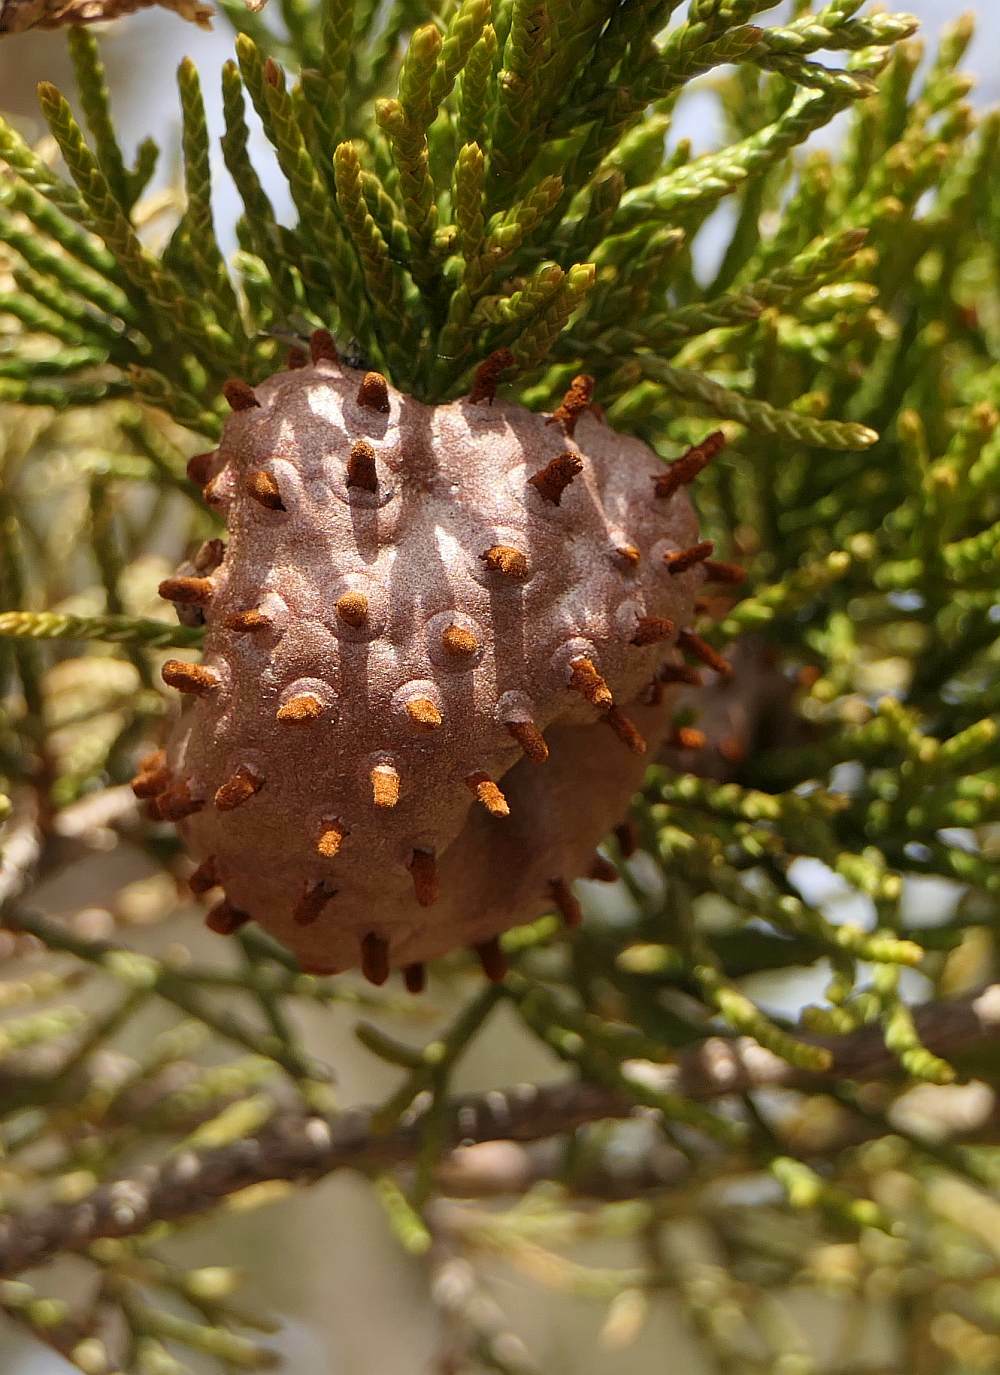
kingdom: Fungi
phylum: Basidiomycota
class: Pucciniomycetes
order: Pucciniales
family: Gymnosporangiaceae
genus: Gymnosporangium
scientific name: Gymnosporangium juniperi-virginianae
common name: Juniper-apple rust
